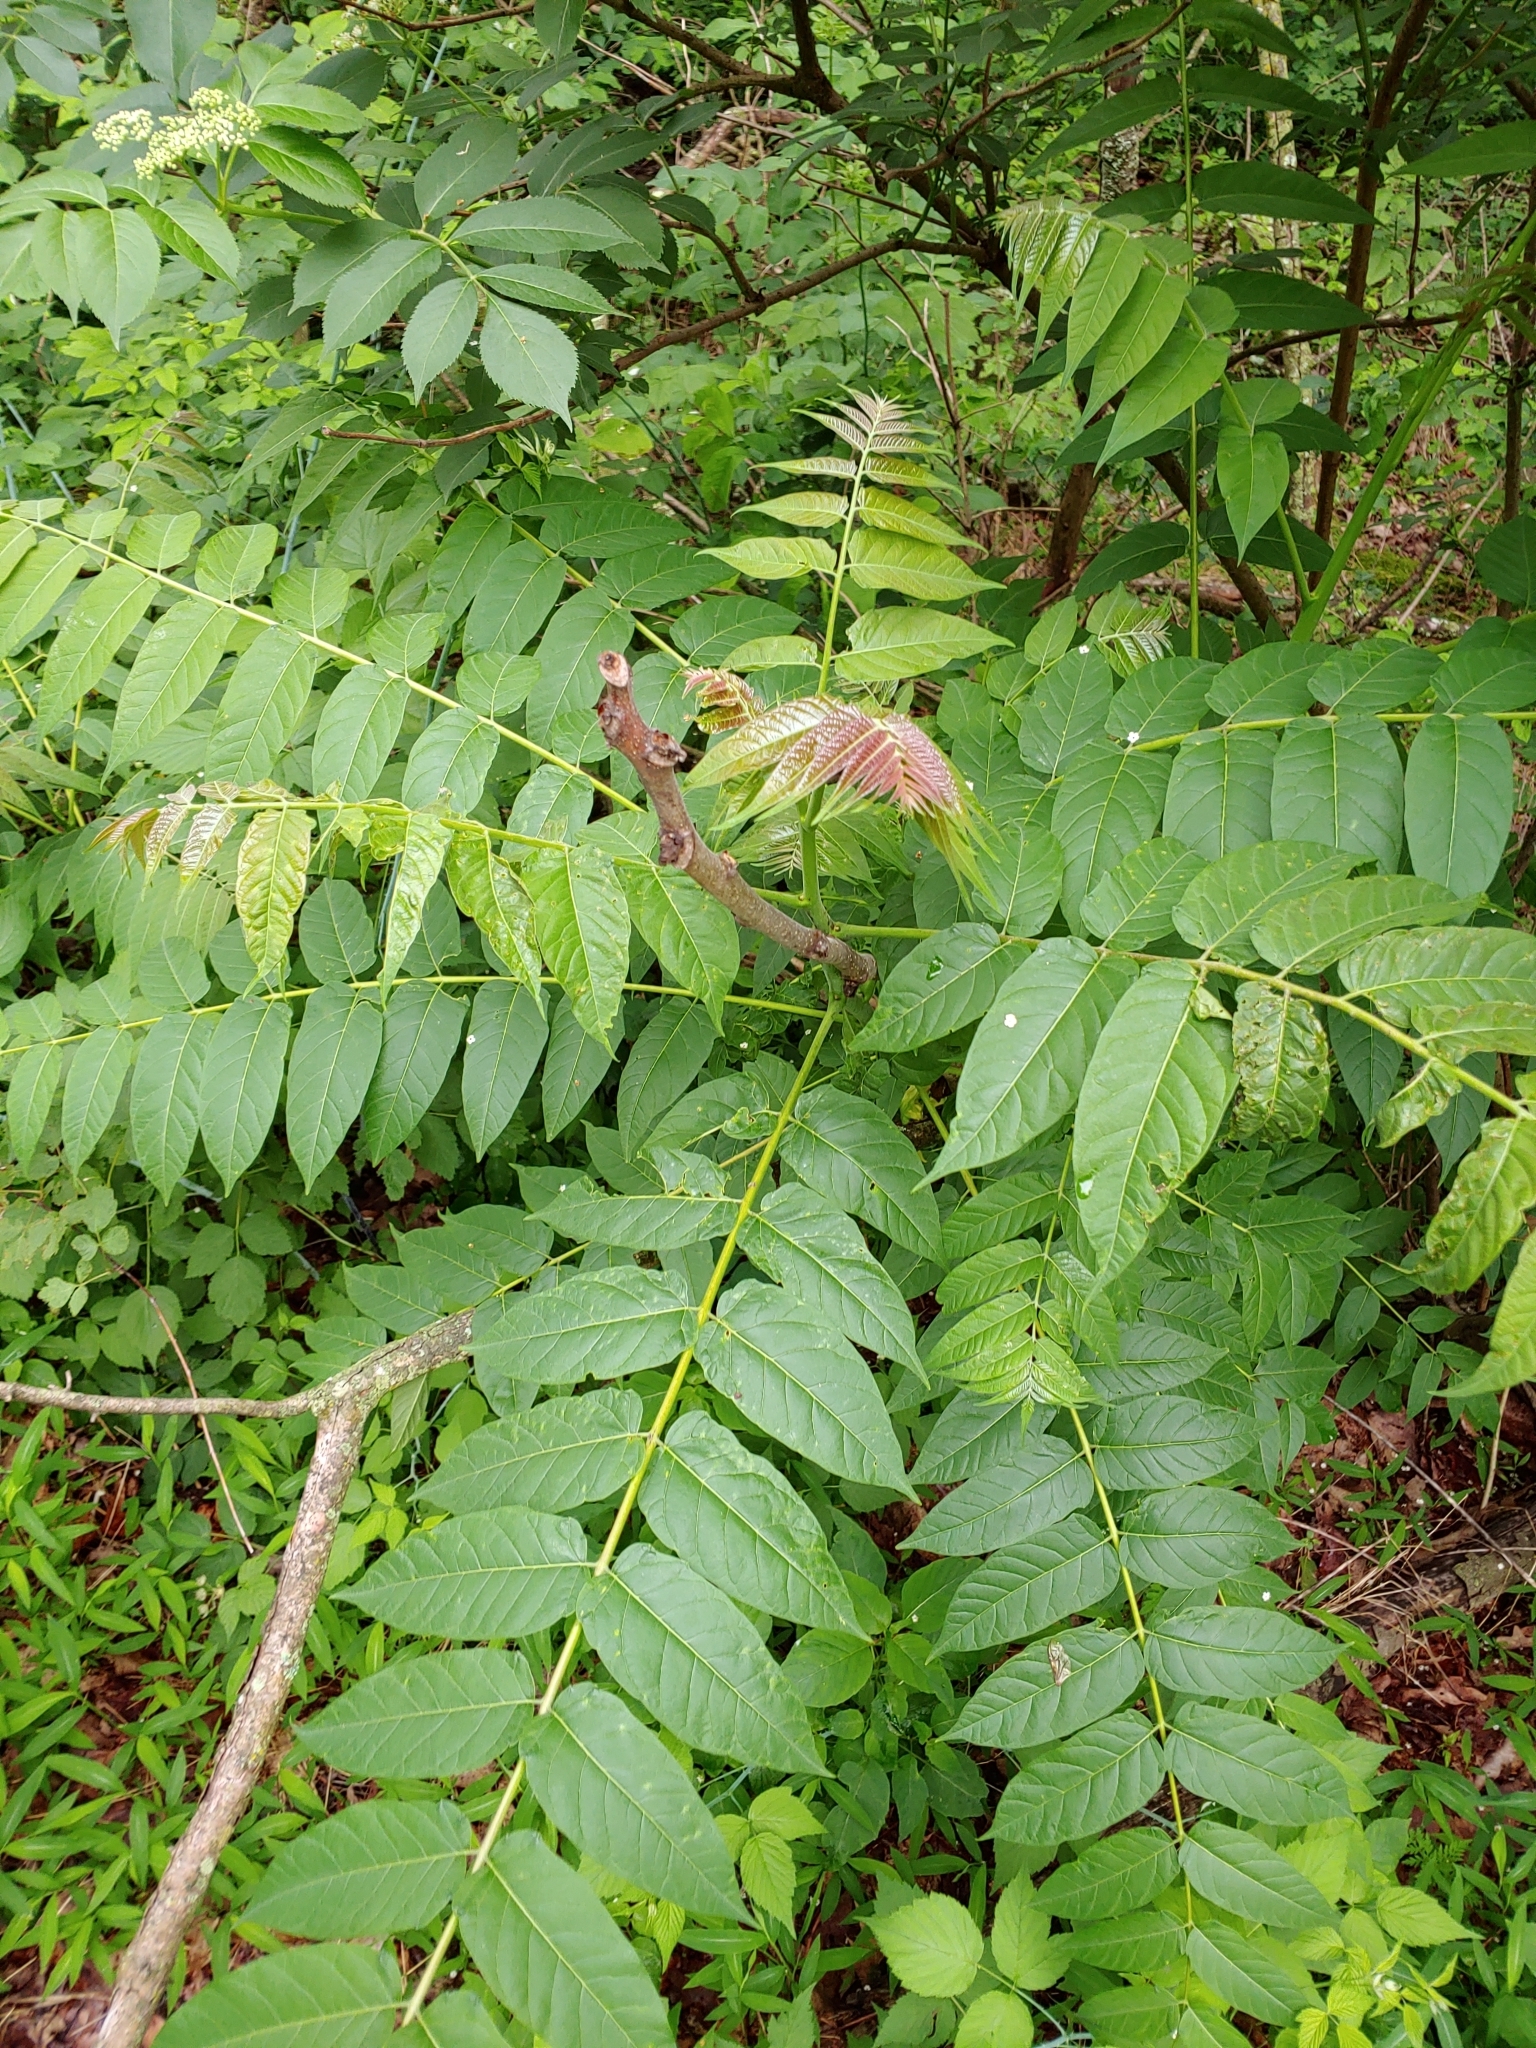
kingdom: Plantae
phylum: Tracheophyta
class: Magnoliopsida
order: Sapindales
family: Simaroubaceae
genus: Ailanthus
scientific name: Ailanthus altissima
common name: Tree-of-heaven
